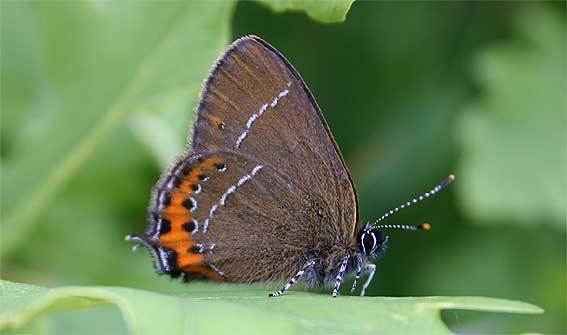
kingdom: Animalia
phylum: Arthropoda
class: Insecta
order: Lepidoptera
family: Lycaenidae
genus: Fixsenia
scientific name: Fixsenia pruni
